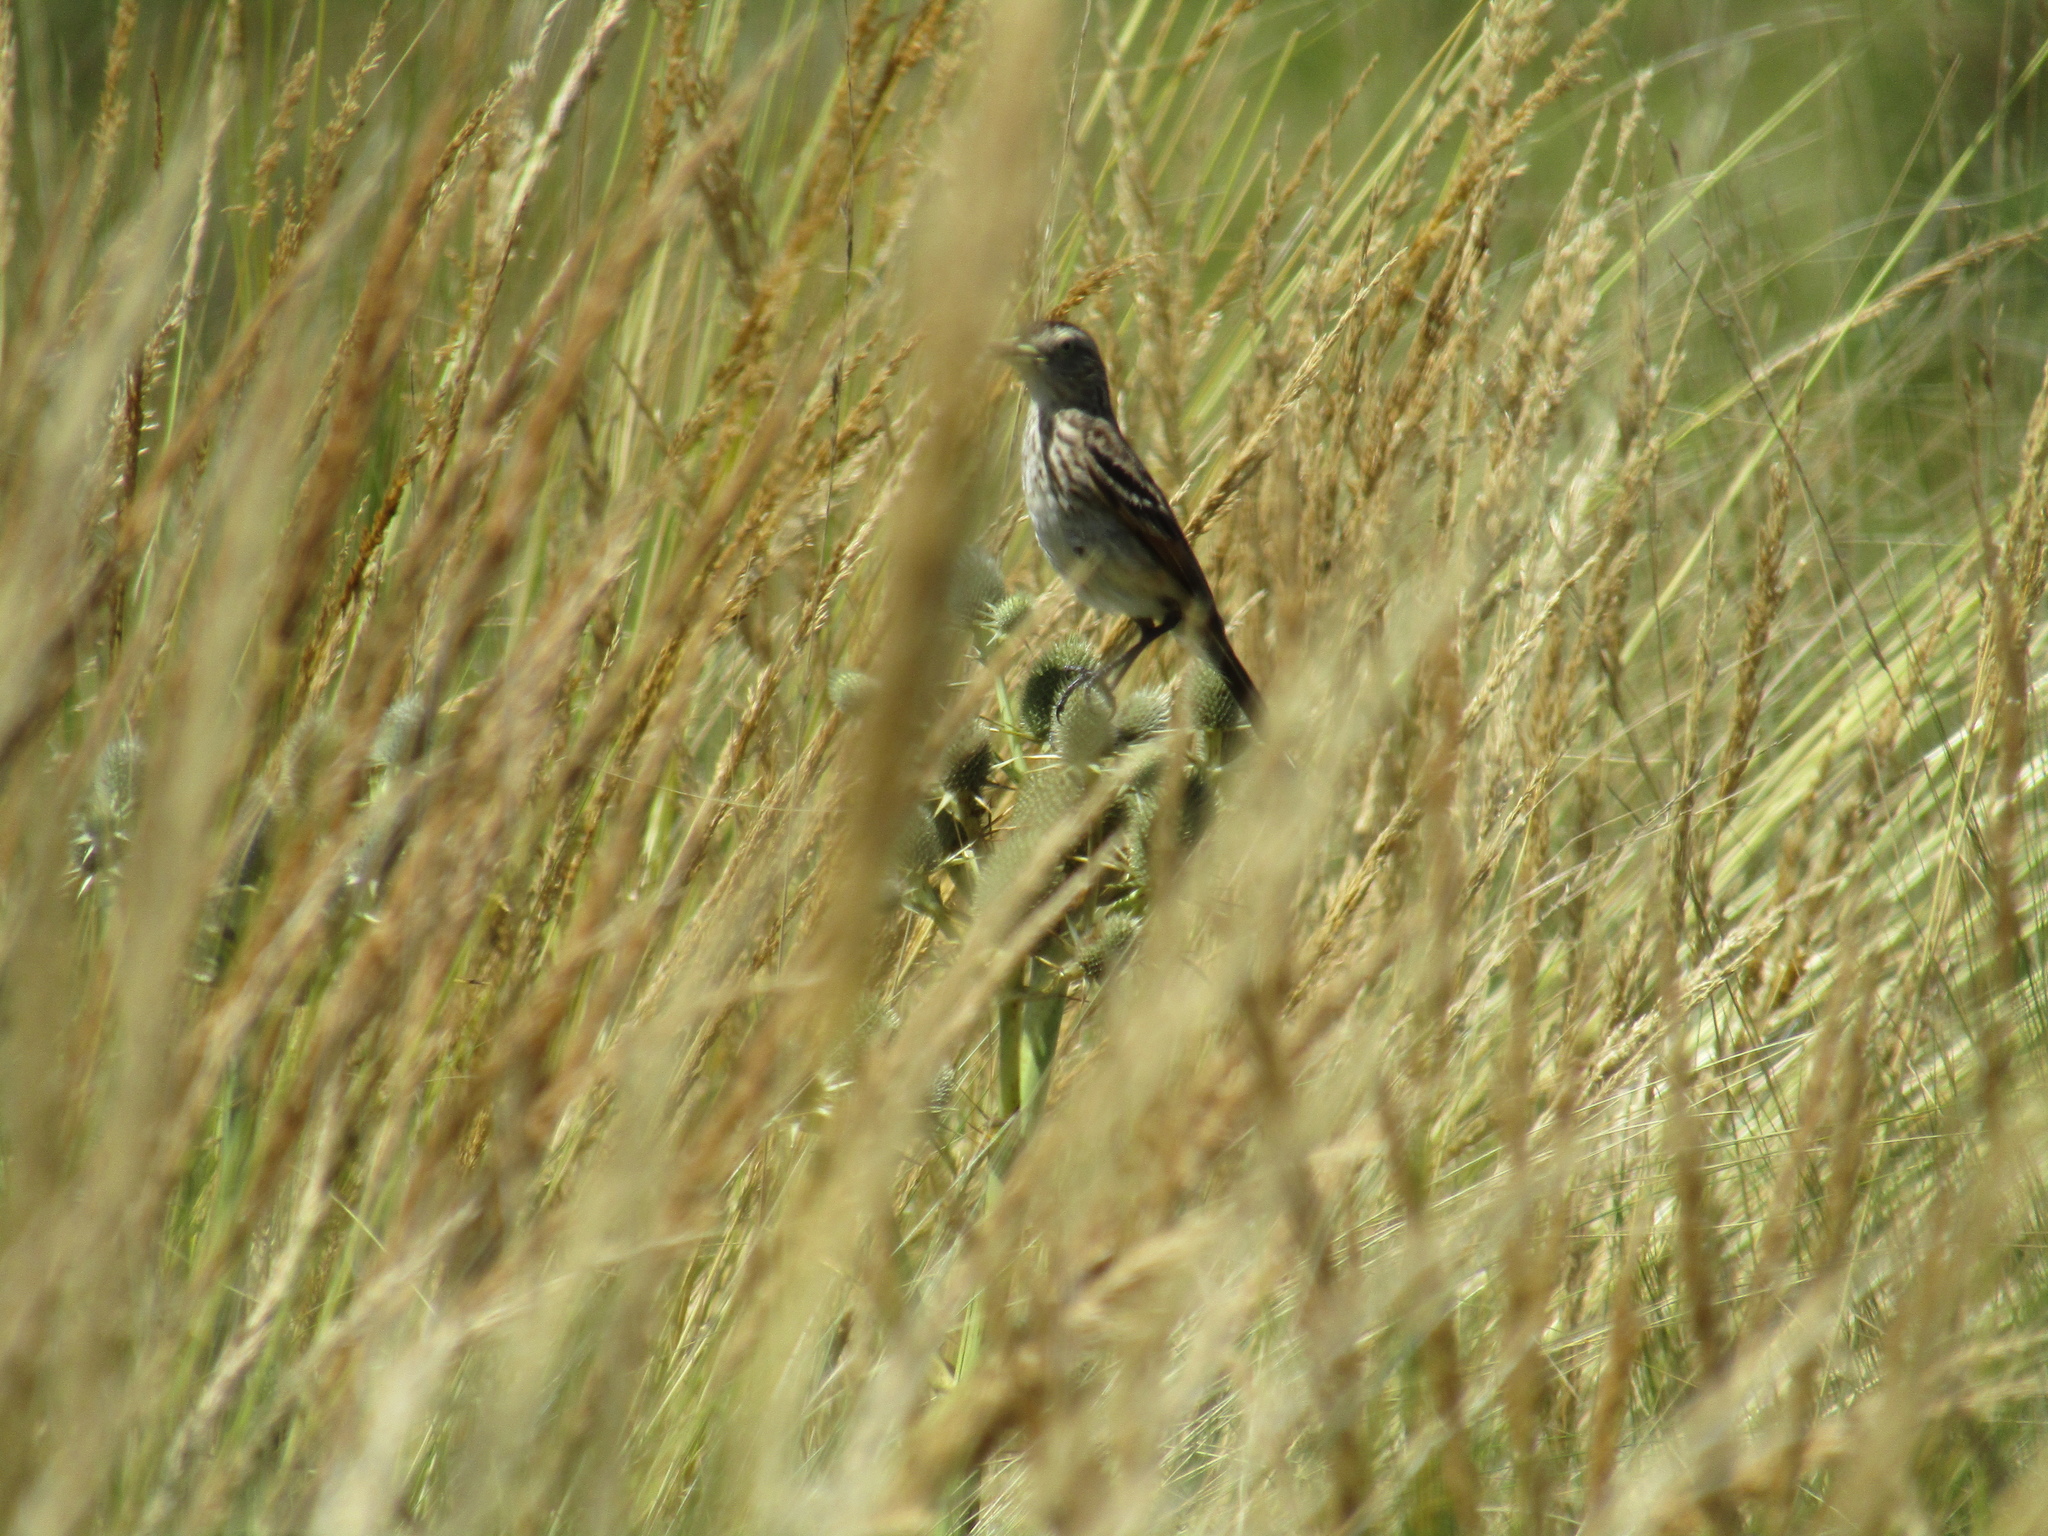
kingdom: Animalia
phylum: Chordata
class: Aves
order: Passeriformes
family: Tyrannidae
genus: Hymenops
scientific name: Hymenops perspicillatus
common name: Spectacled tyrant
